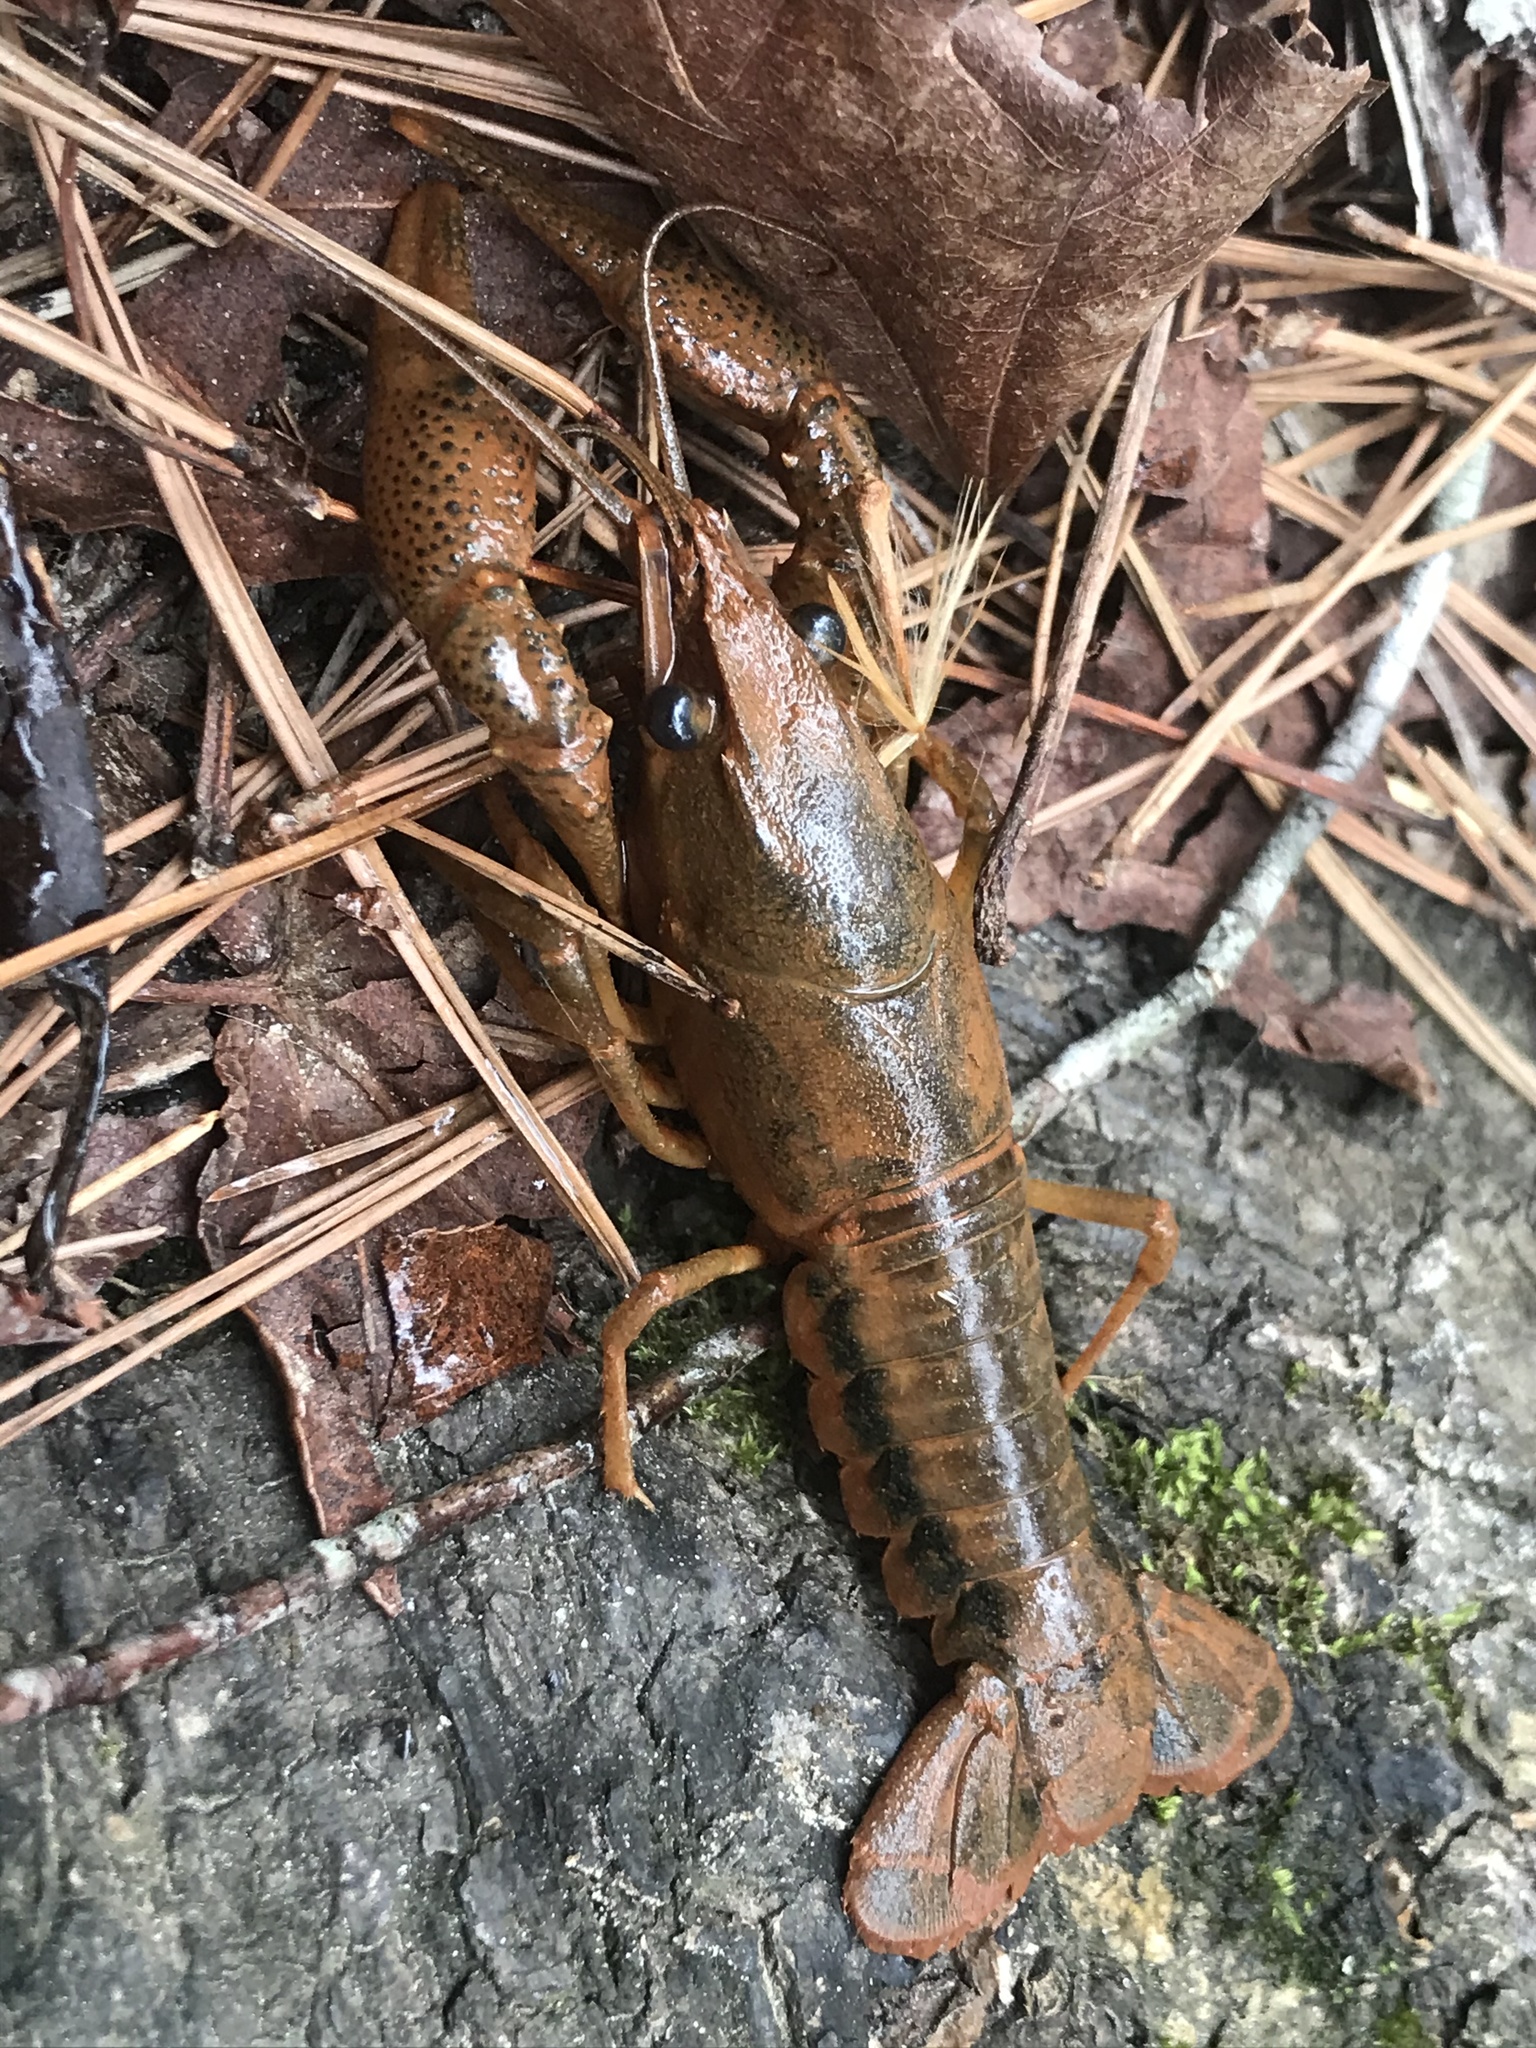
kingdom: Animalia
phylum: Arthropoda
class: Malacostraca
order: Decapoda
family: Cambaridae
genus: Procambarus
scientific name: Procambarus dupratzi
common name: Southwestern creek crayfish
